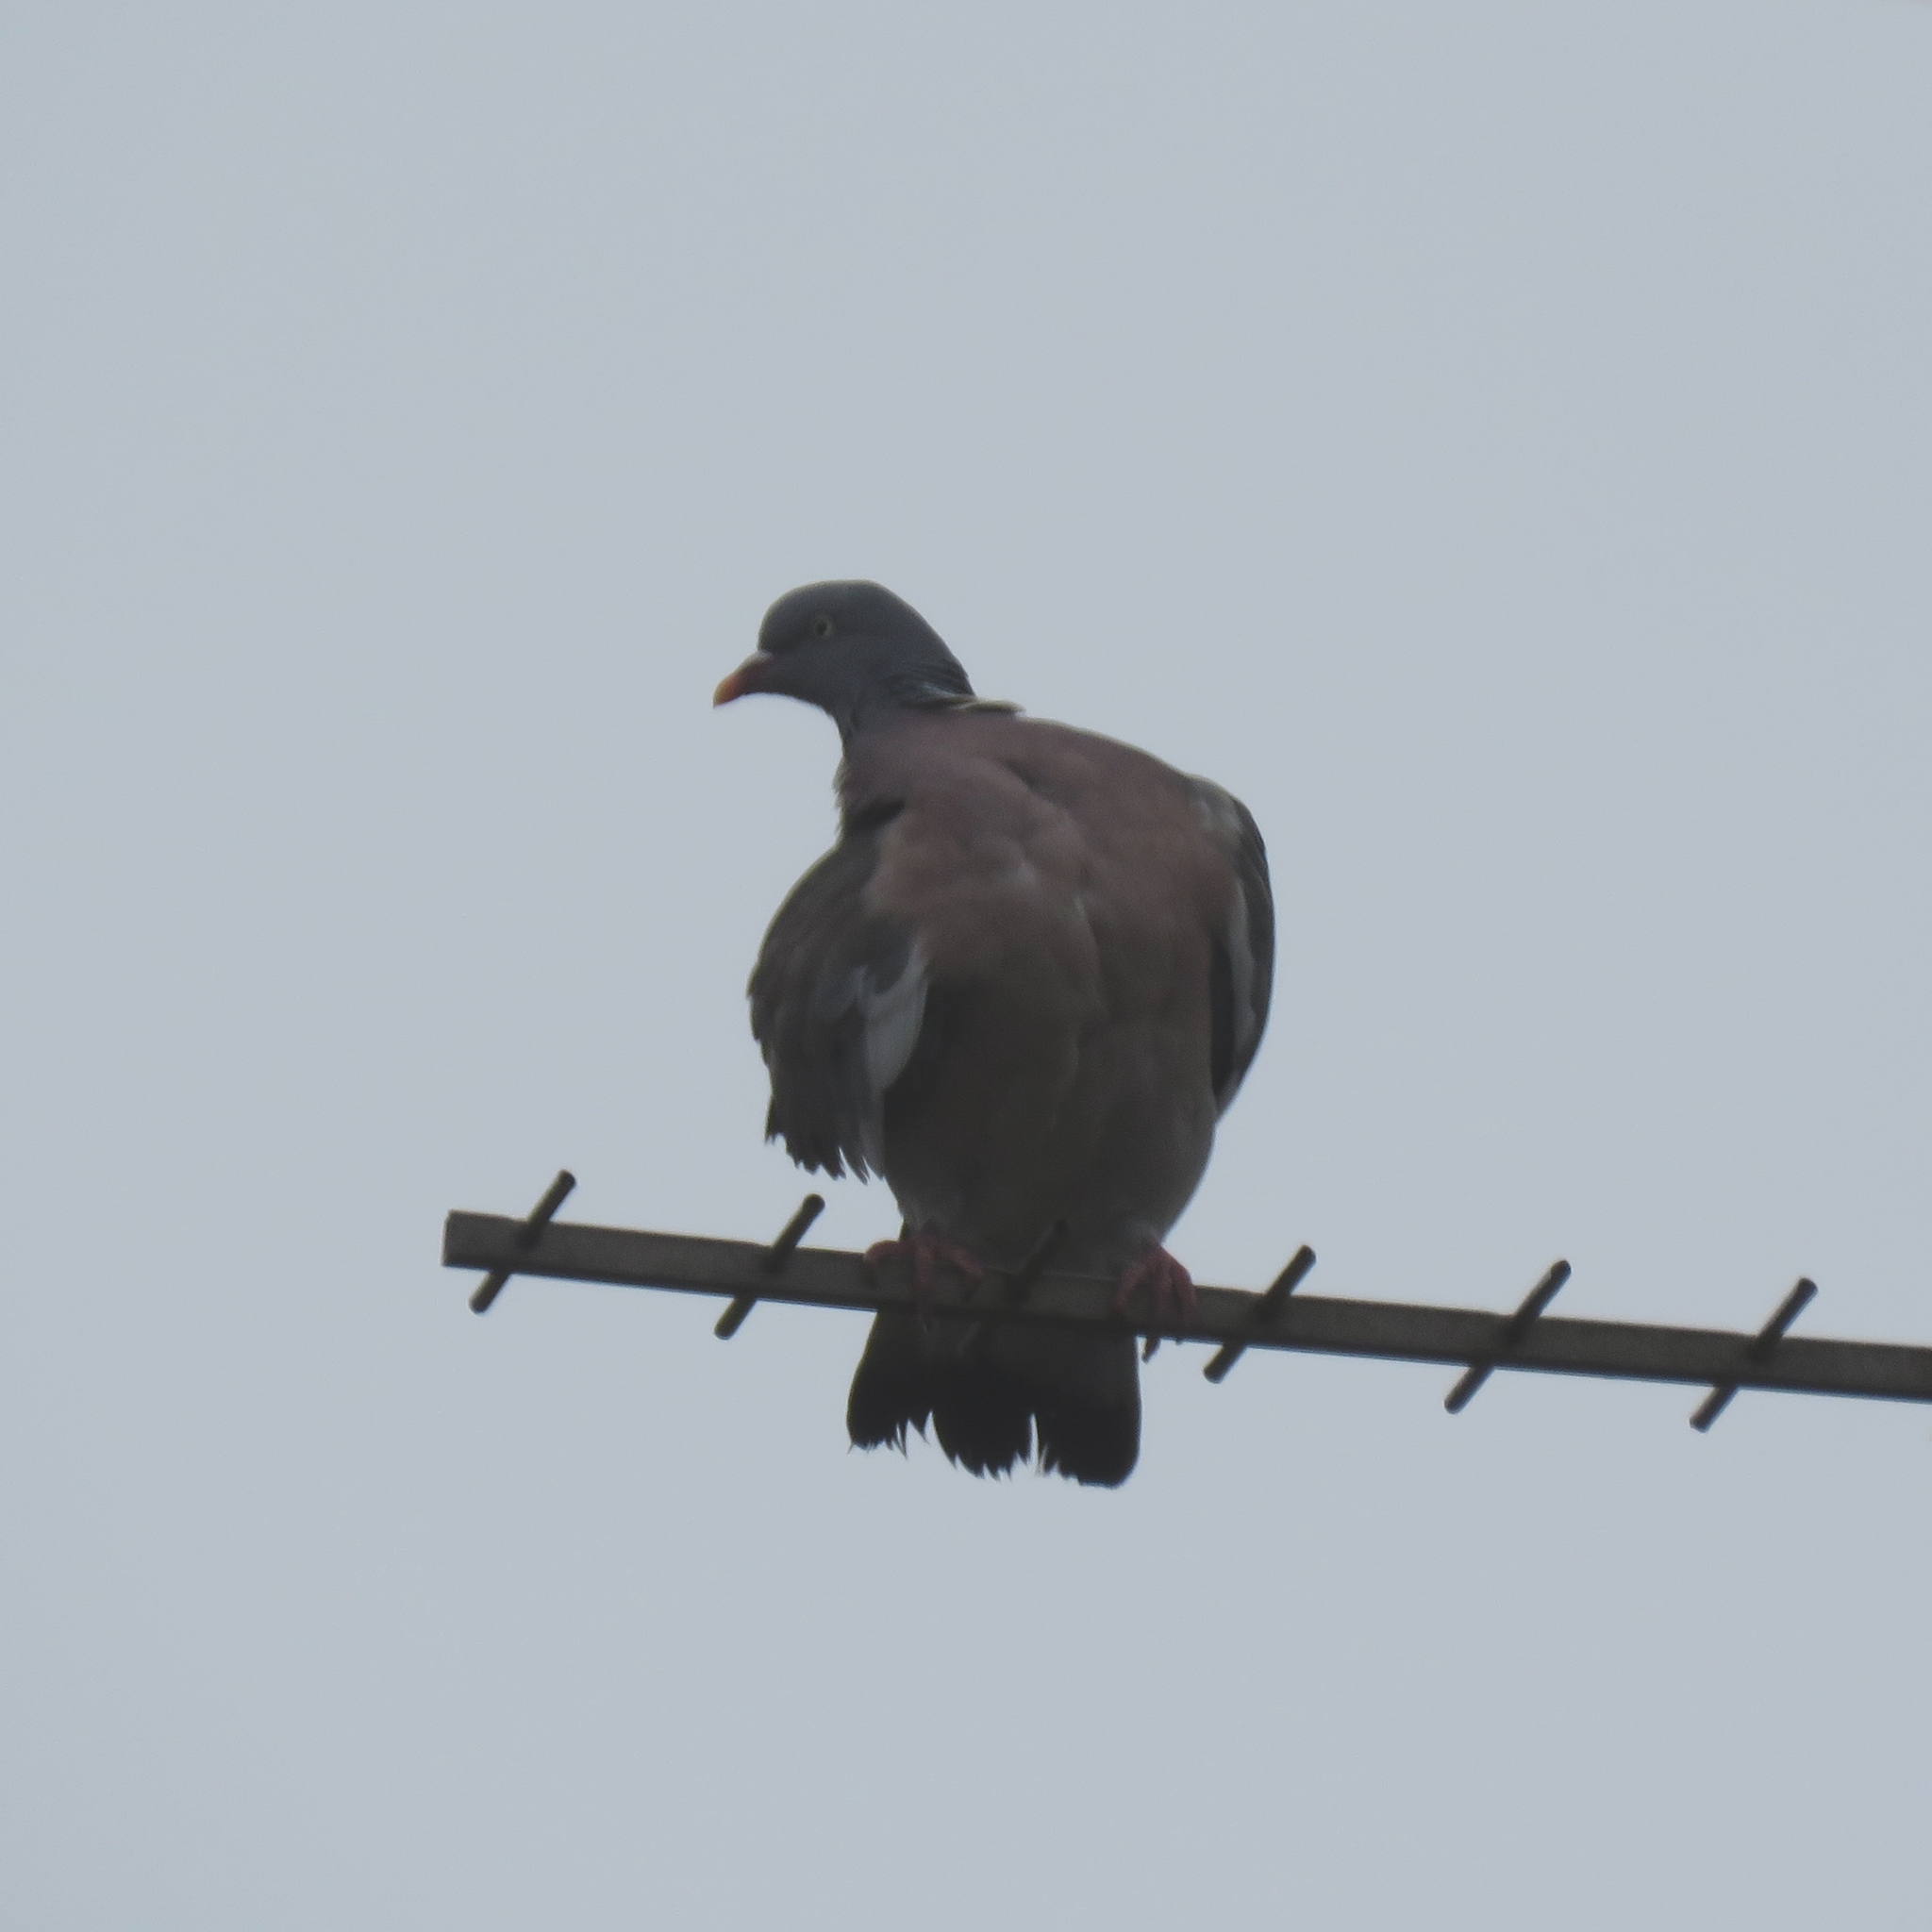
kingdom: Animalia
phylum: Chordata
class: Aves
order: Columbiformes
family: Columbidae
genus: Columba
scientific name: Columba palumbus
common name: Common wood pigeon
